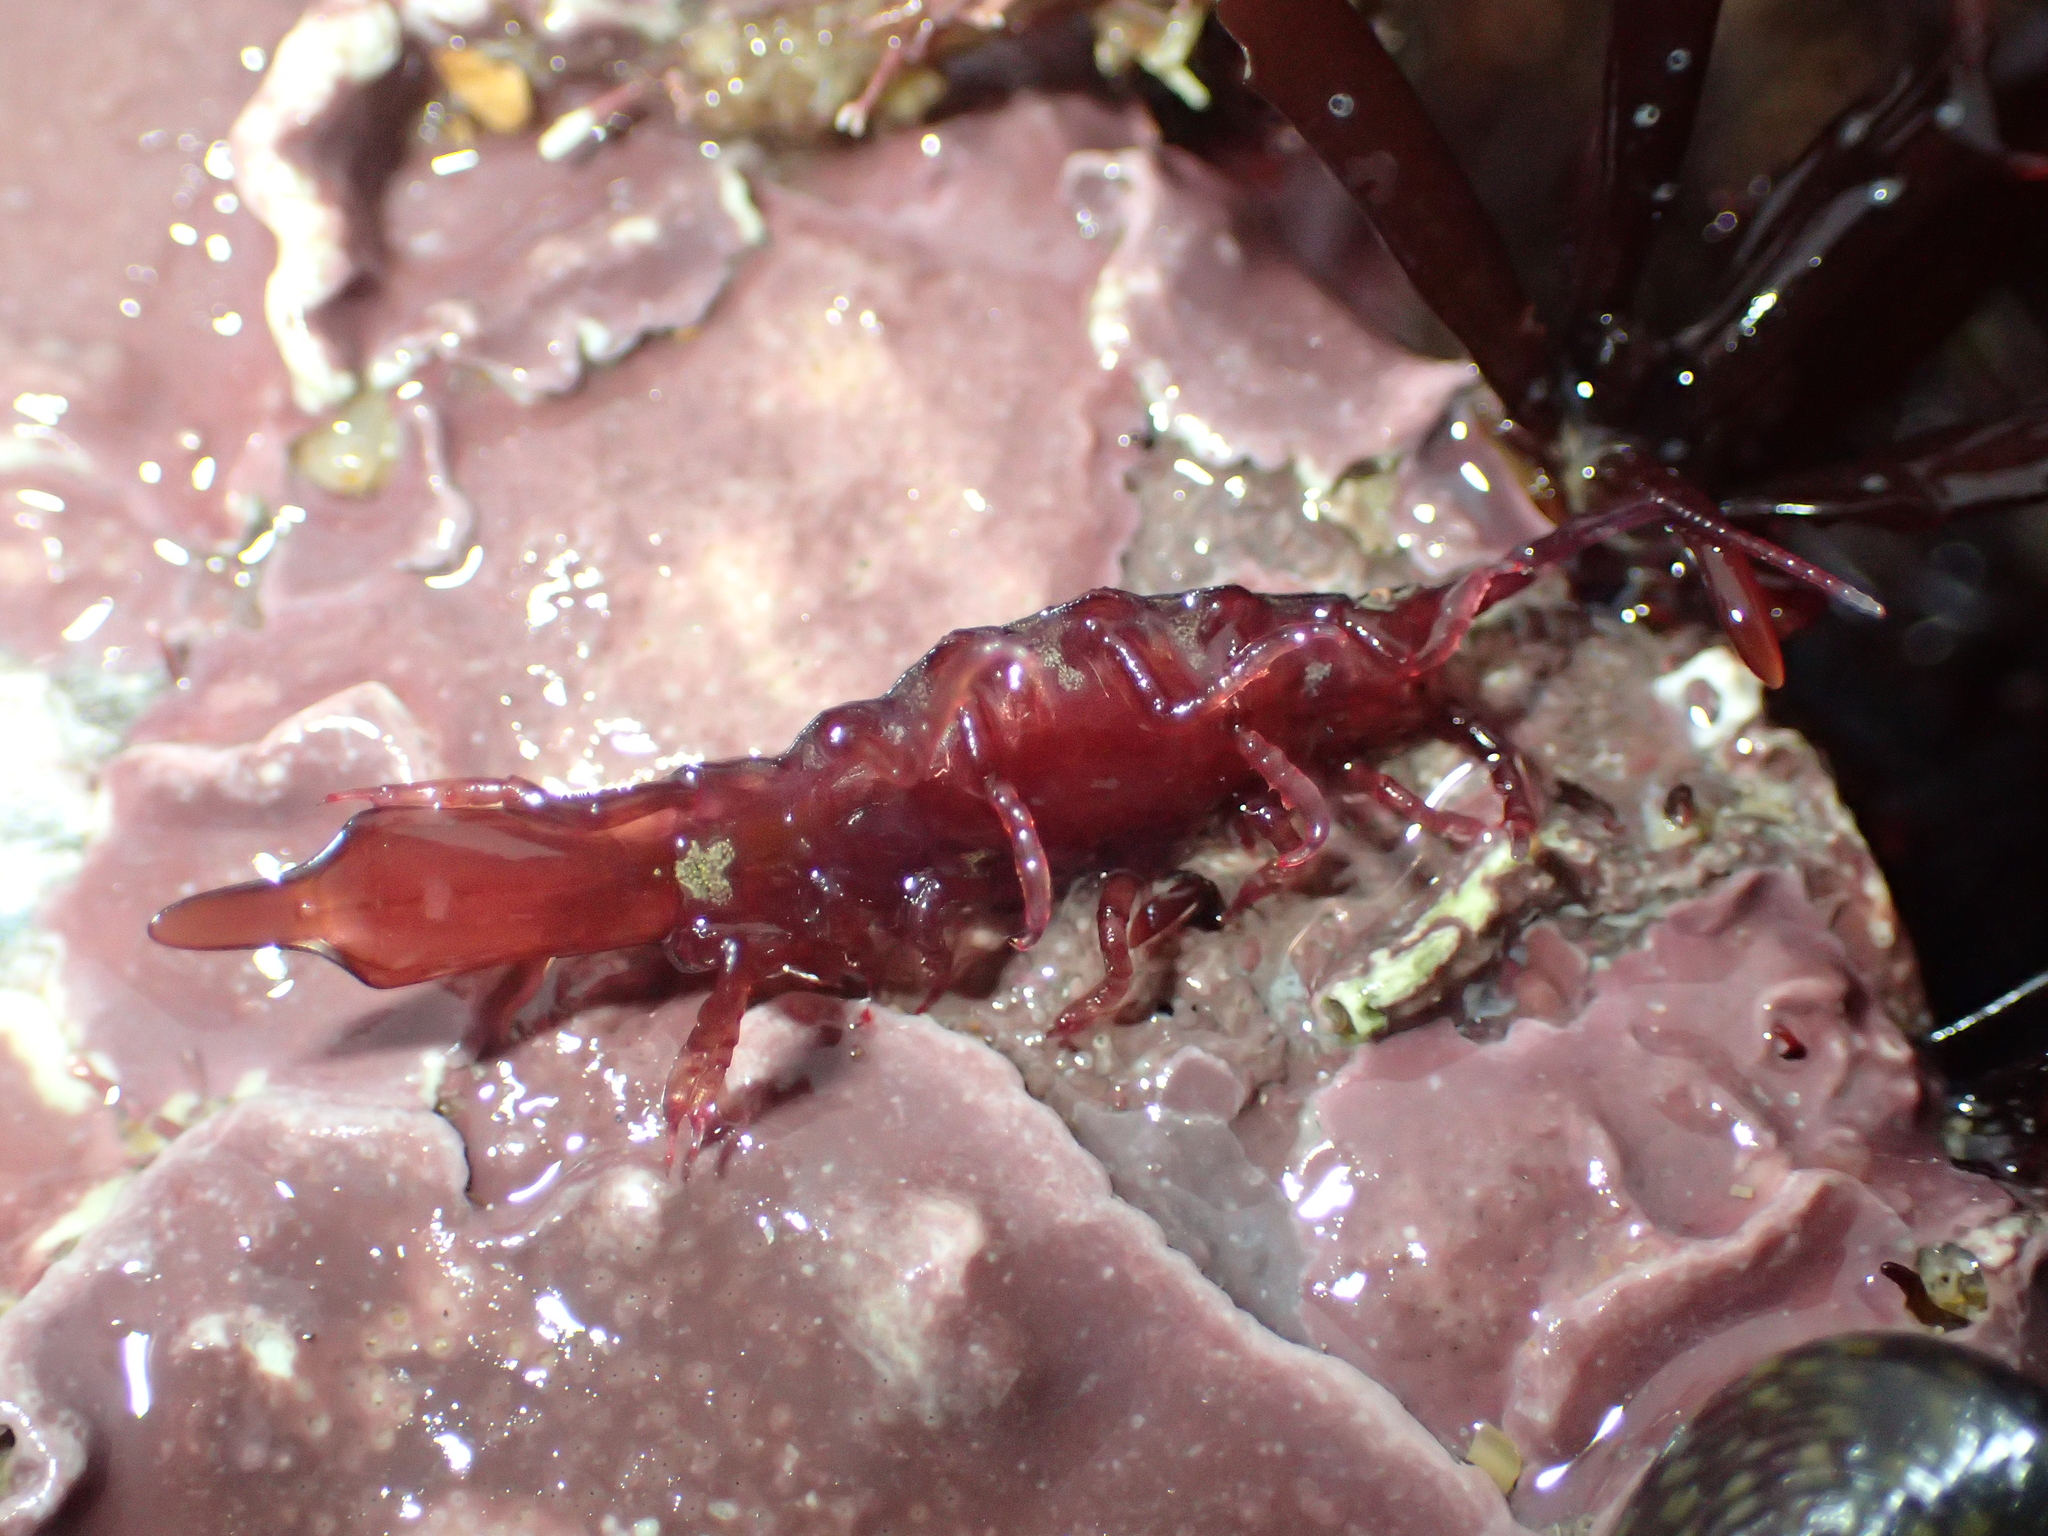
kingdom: Animalia
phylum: Arthropoda
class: Malacostraca
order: Isopoda
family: Idoteidae
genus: Stenosoma
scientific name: Stenosoma lancifer
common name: Sea slater
